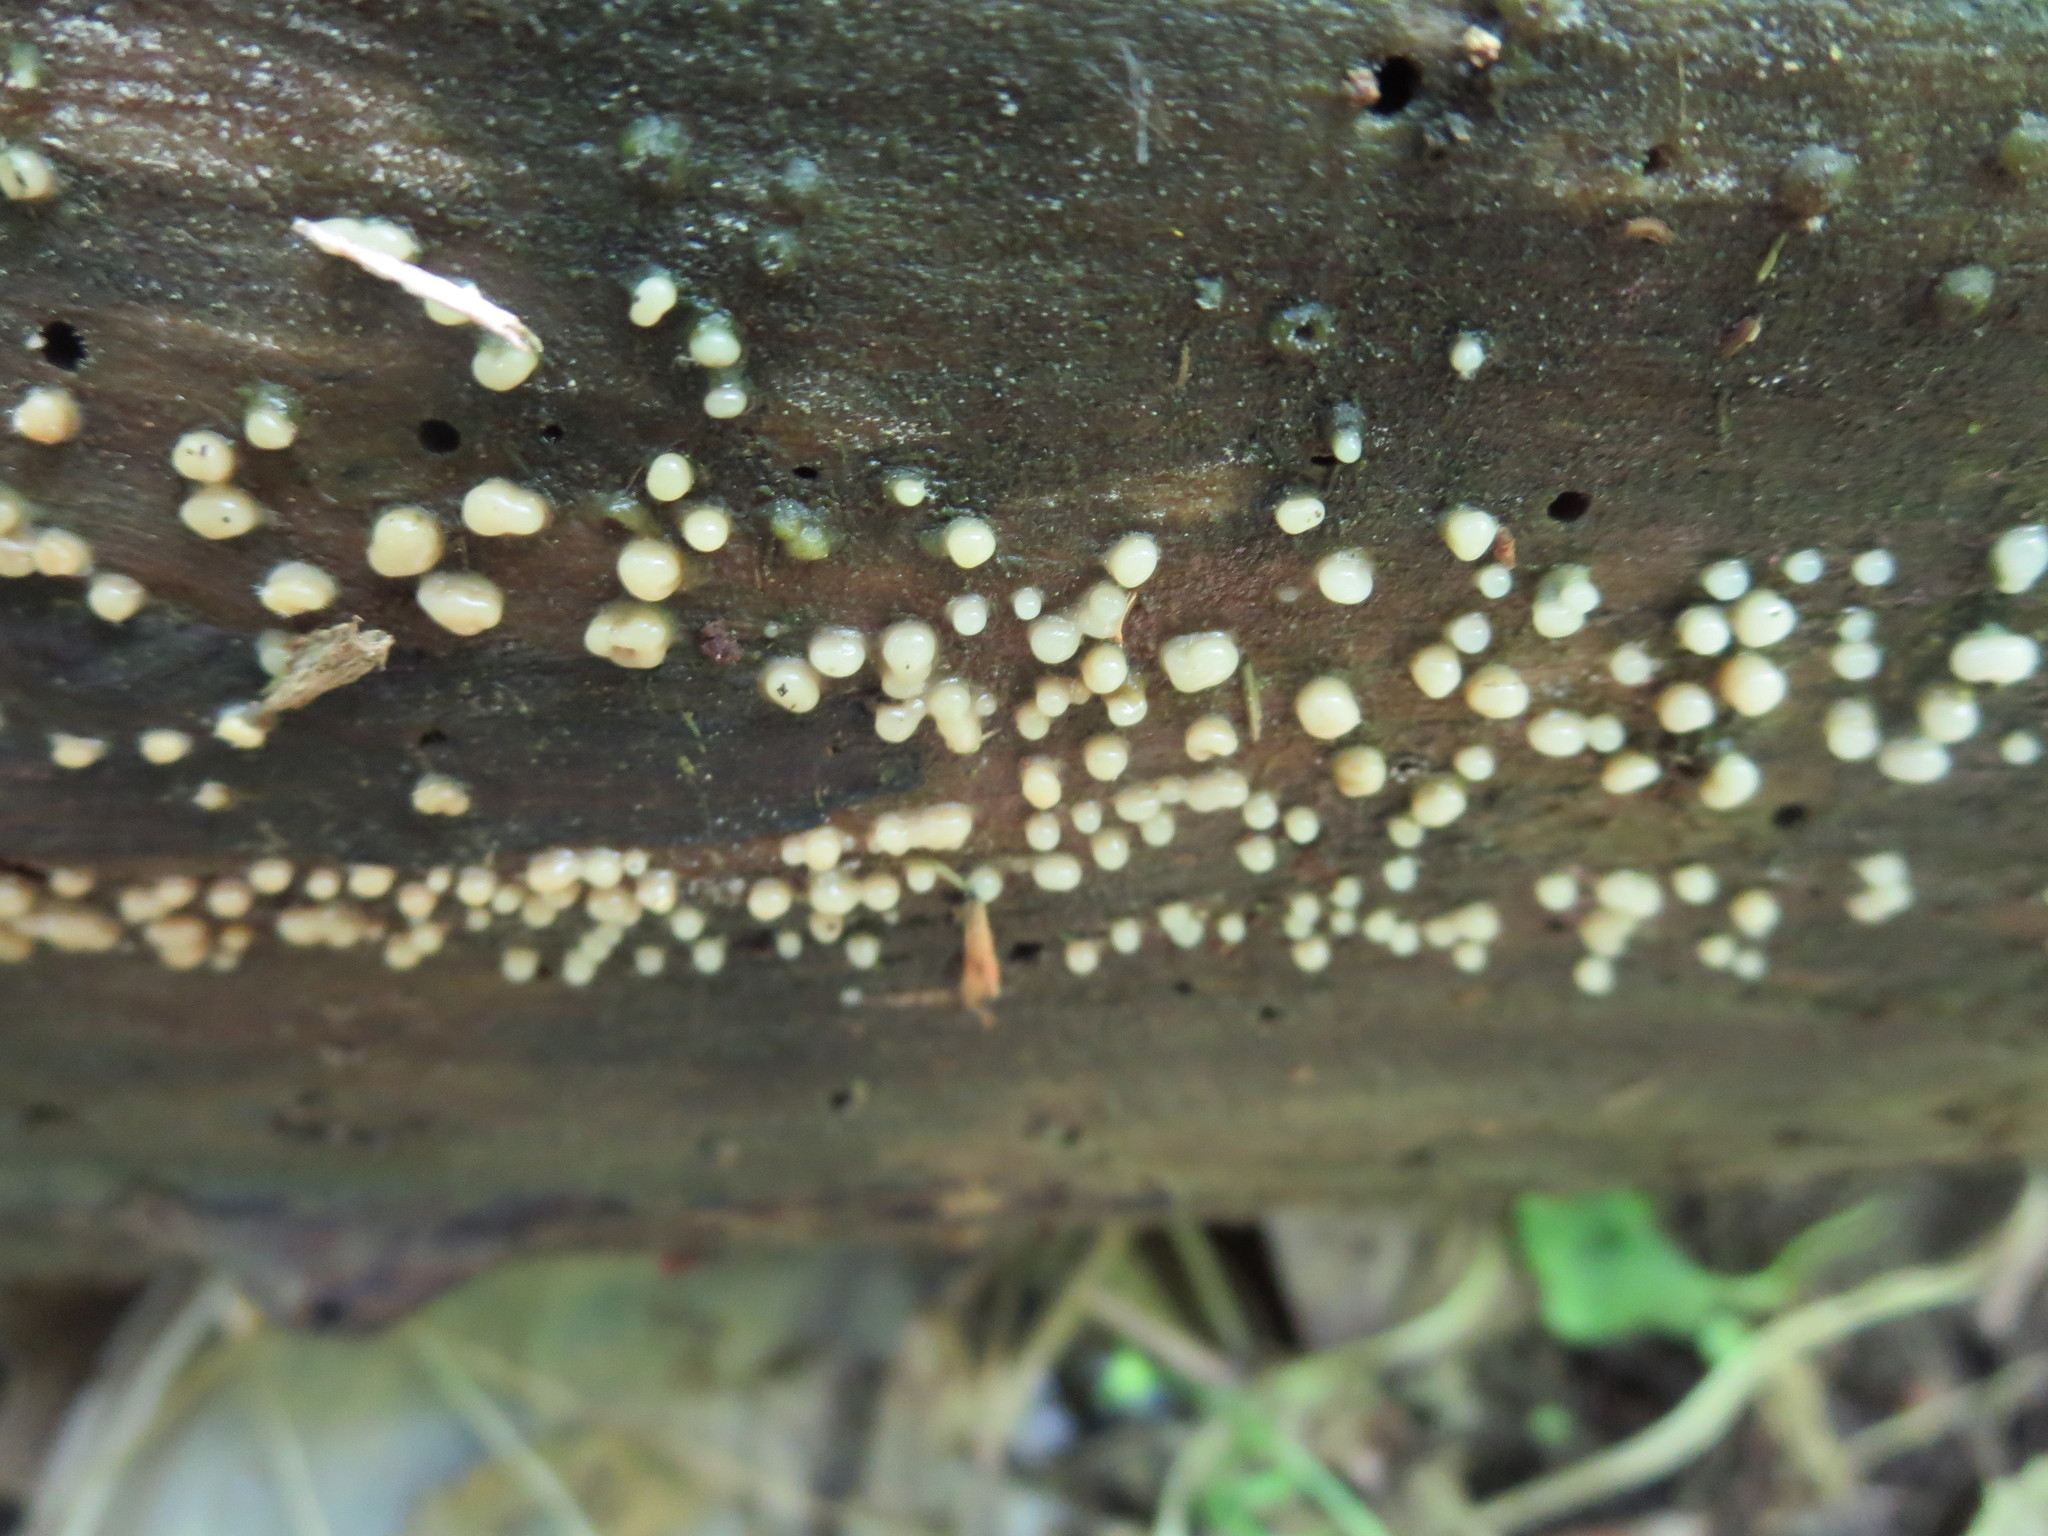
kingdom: Fungi
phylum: Basidiomycota
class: Atractiellomycetes
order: Atractiellales
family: Phleogenaceae
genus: Helicogloea
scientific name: Helicogloea compressa
